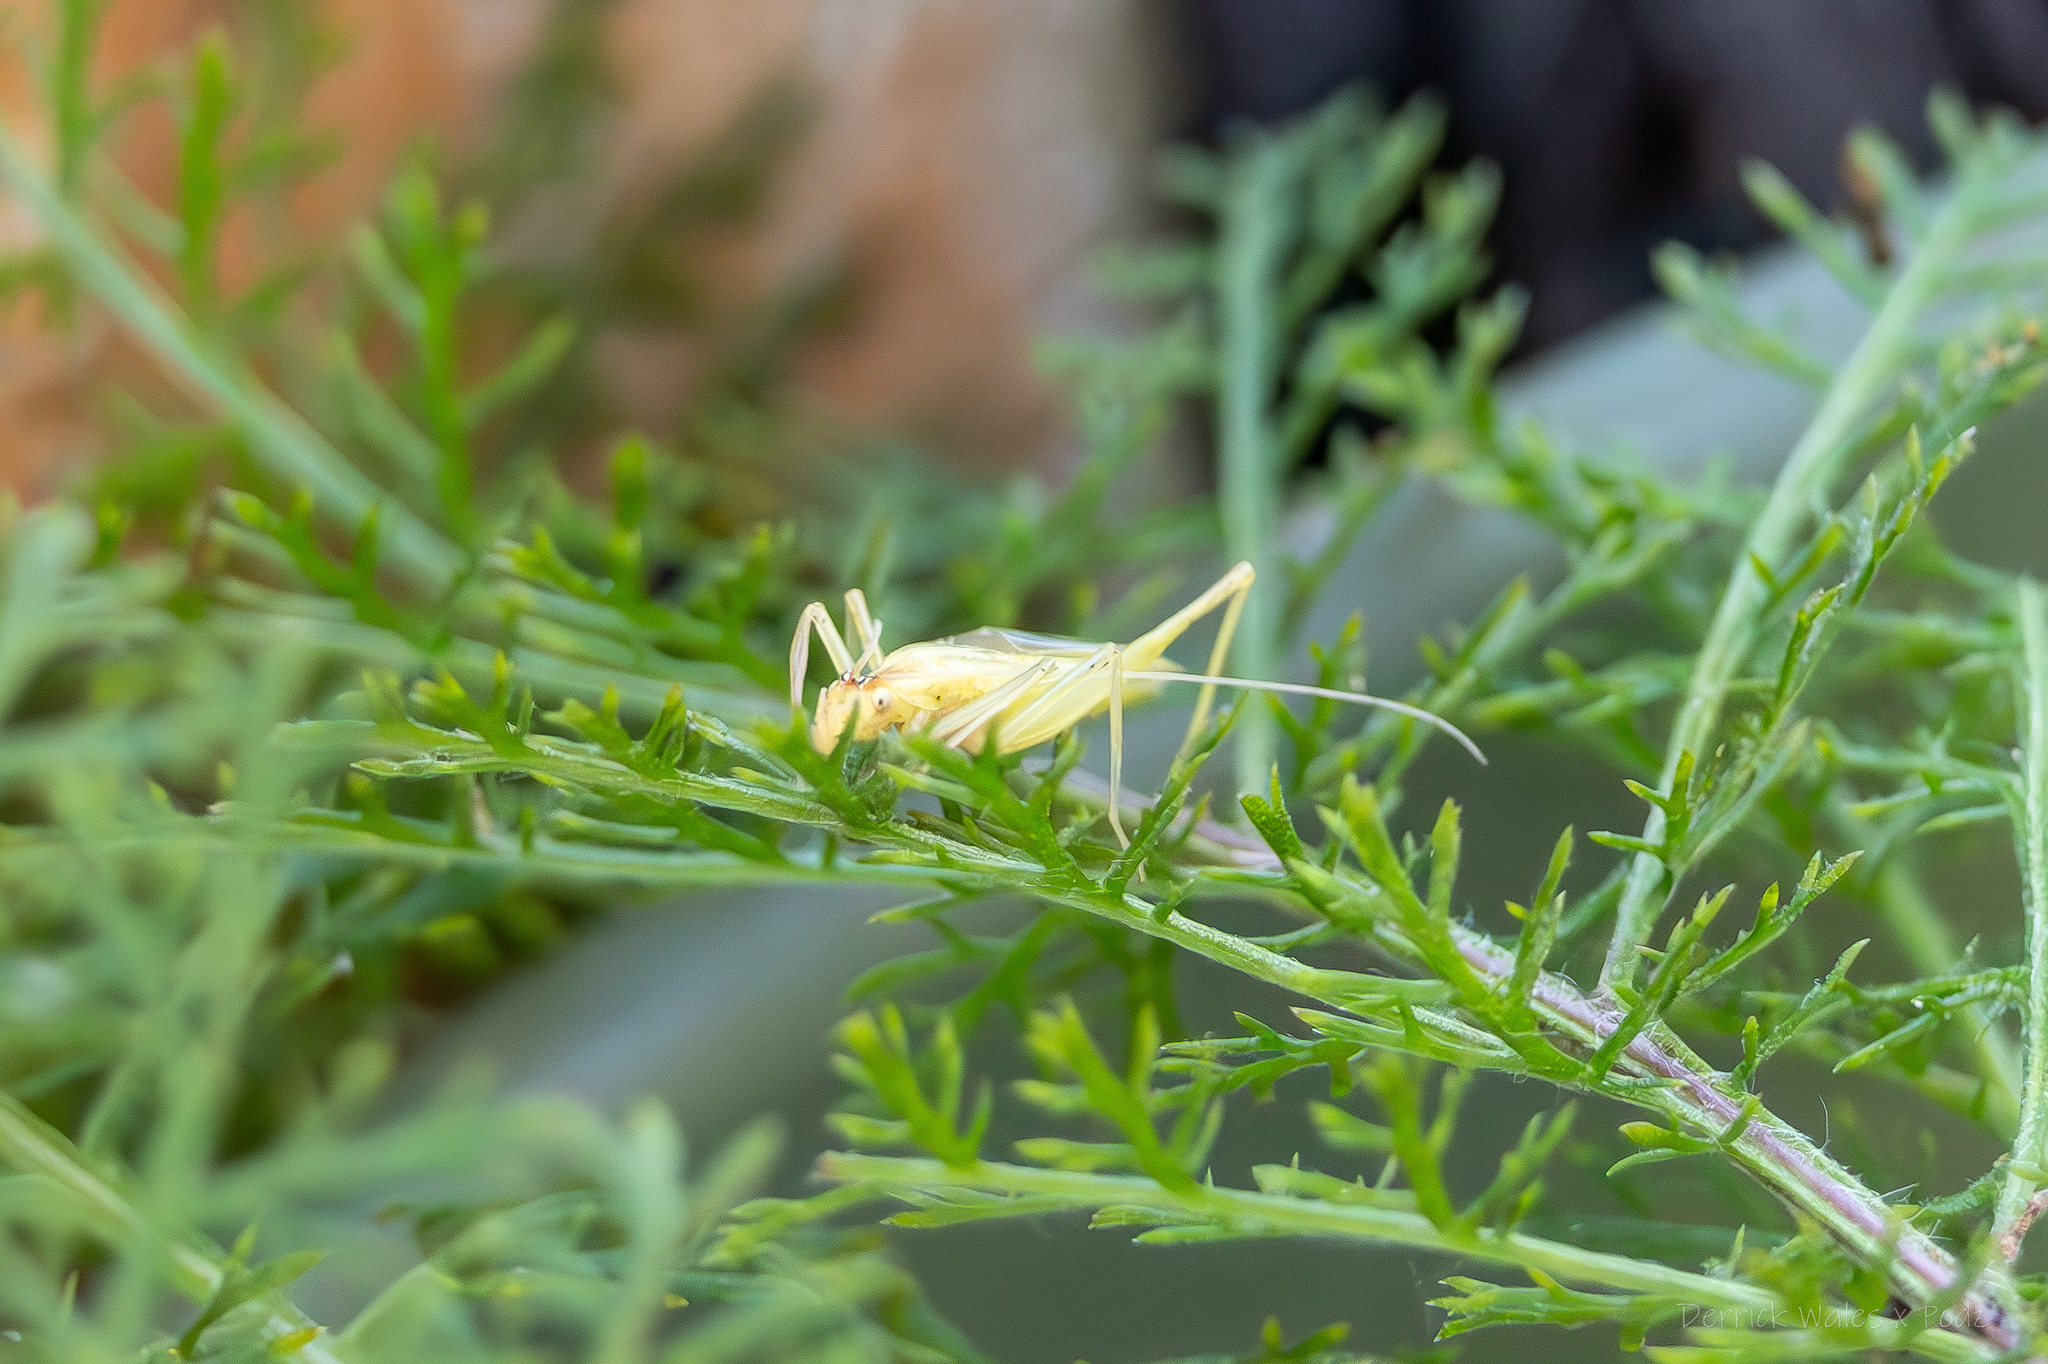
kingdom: Animalia
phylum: Arthropoda
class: Insecta
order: Orthoptera
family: Gryllidae
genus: Oecanthus
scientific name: Oecanthus niveus
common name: Narrow-winged tree cricket
